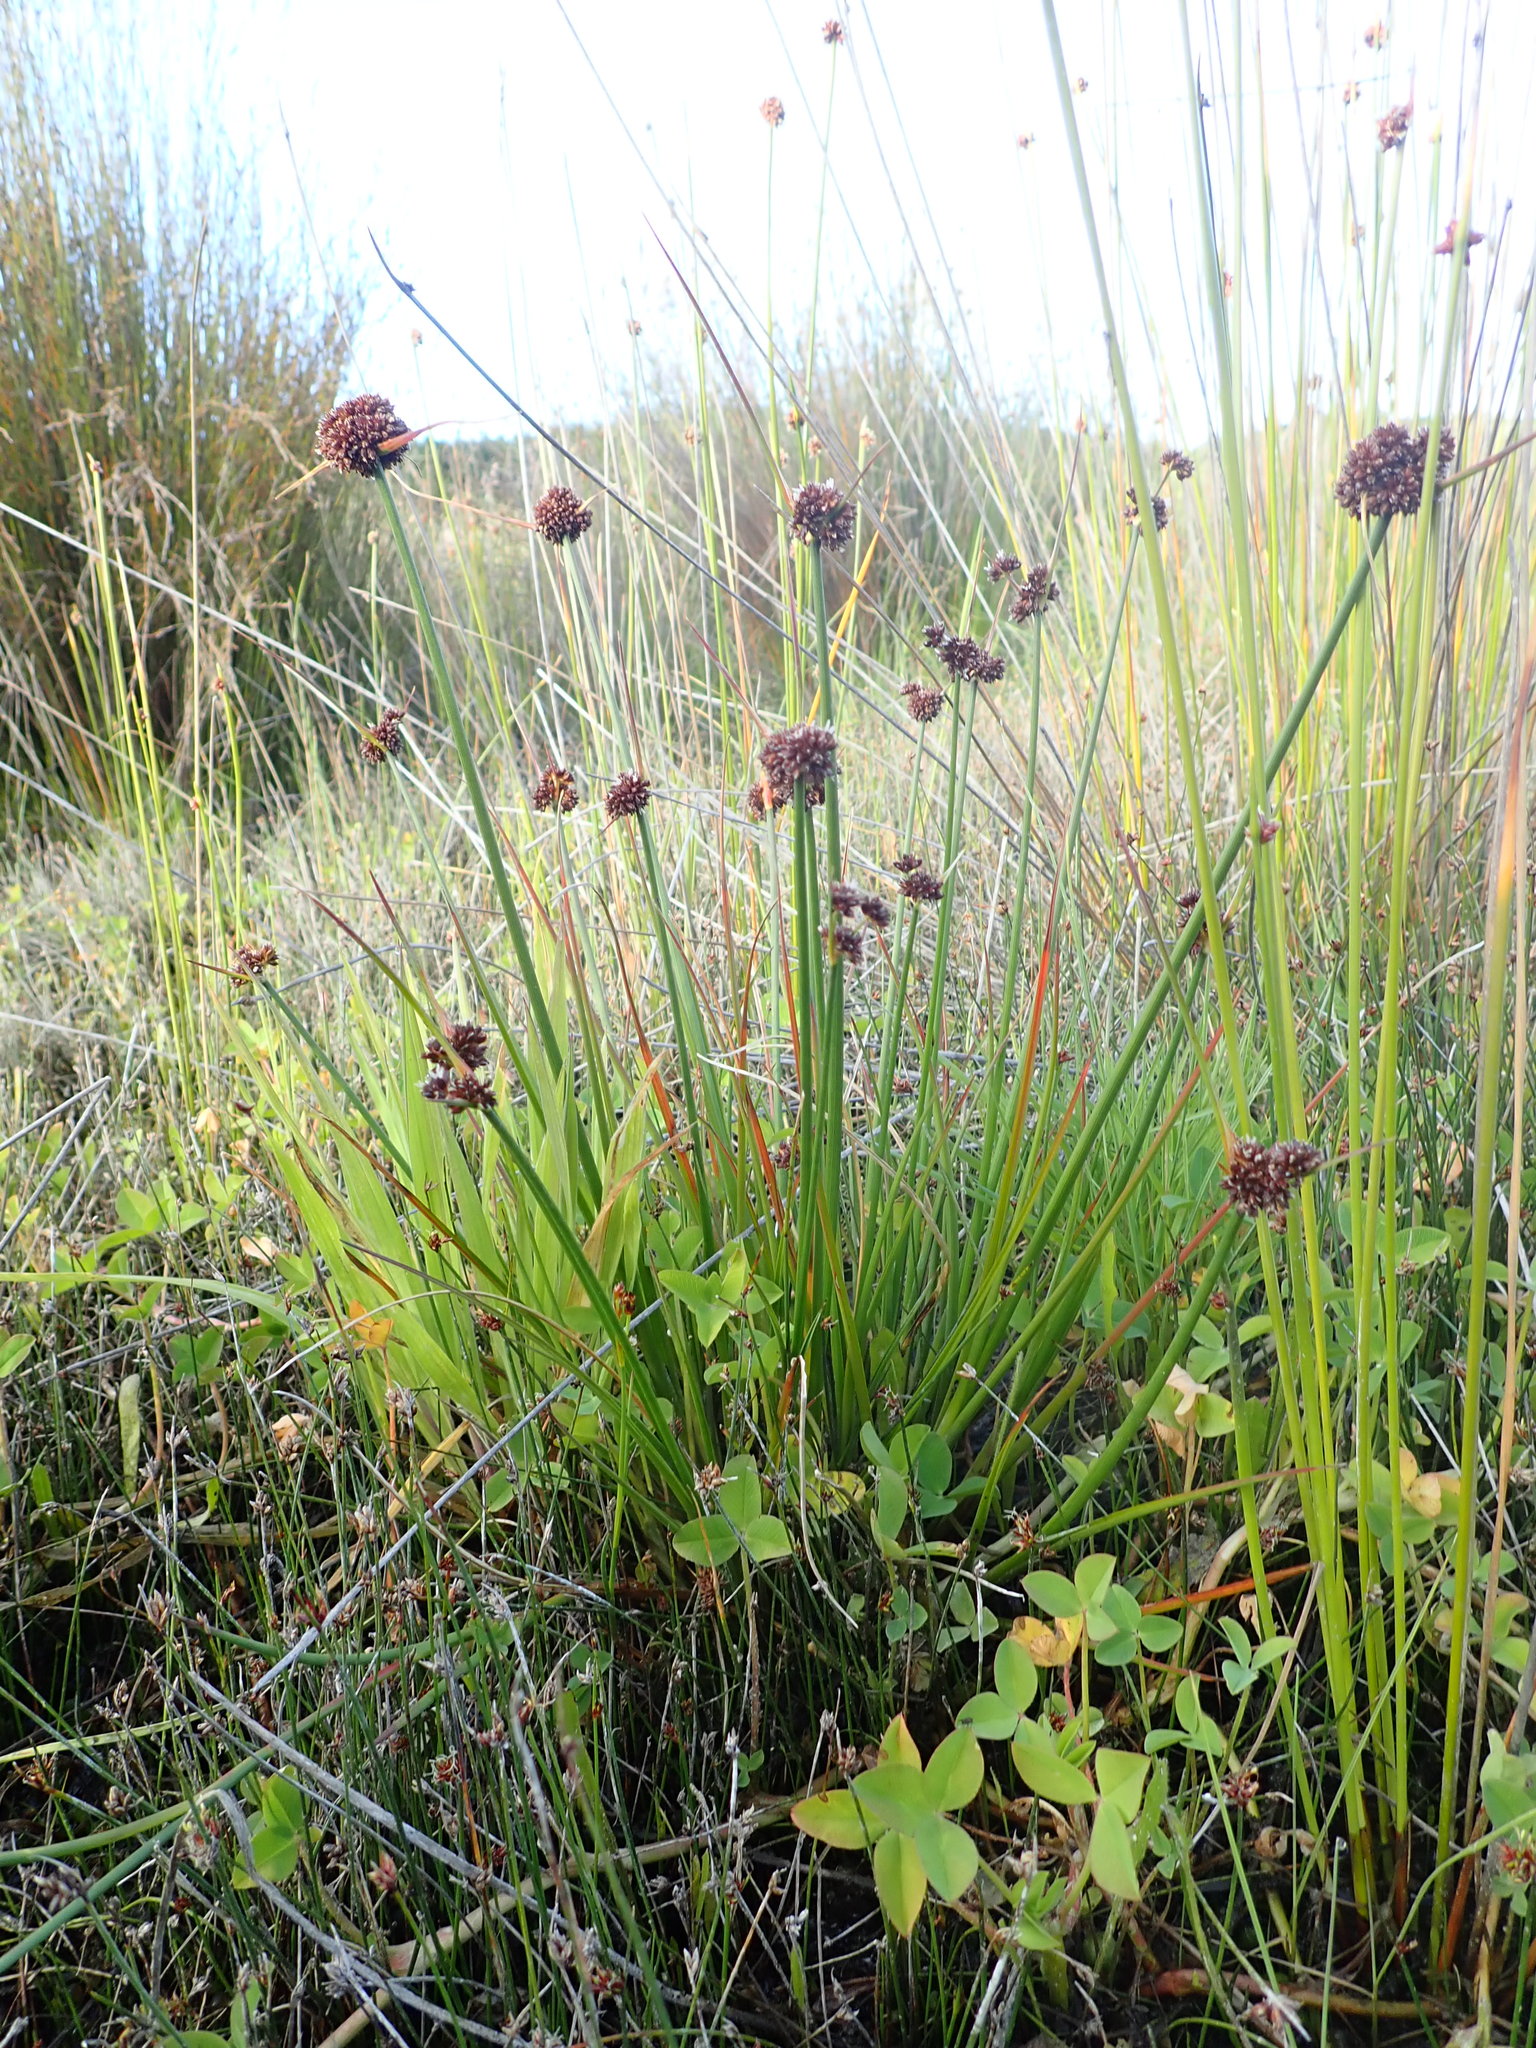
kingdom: Plantae
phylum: Tracheophyta
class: Liliopsida
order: Poales
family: Juncaceae
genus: Juncus
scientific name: Juncus caespiticius
